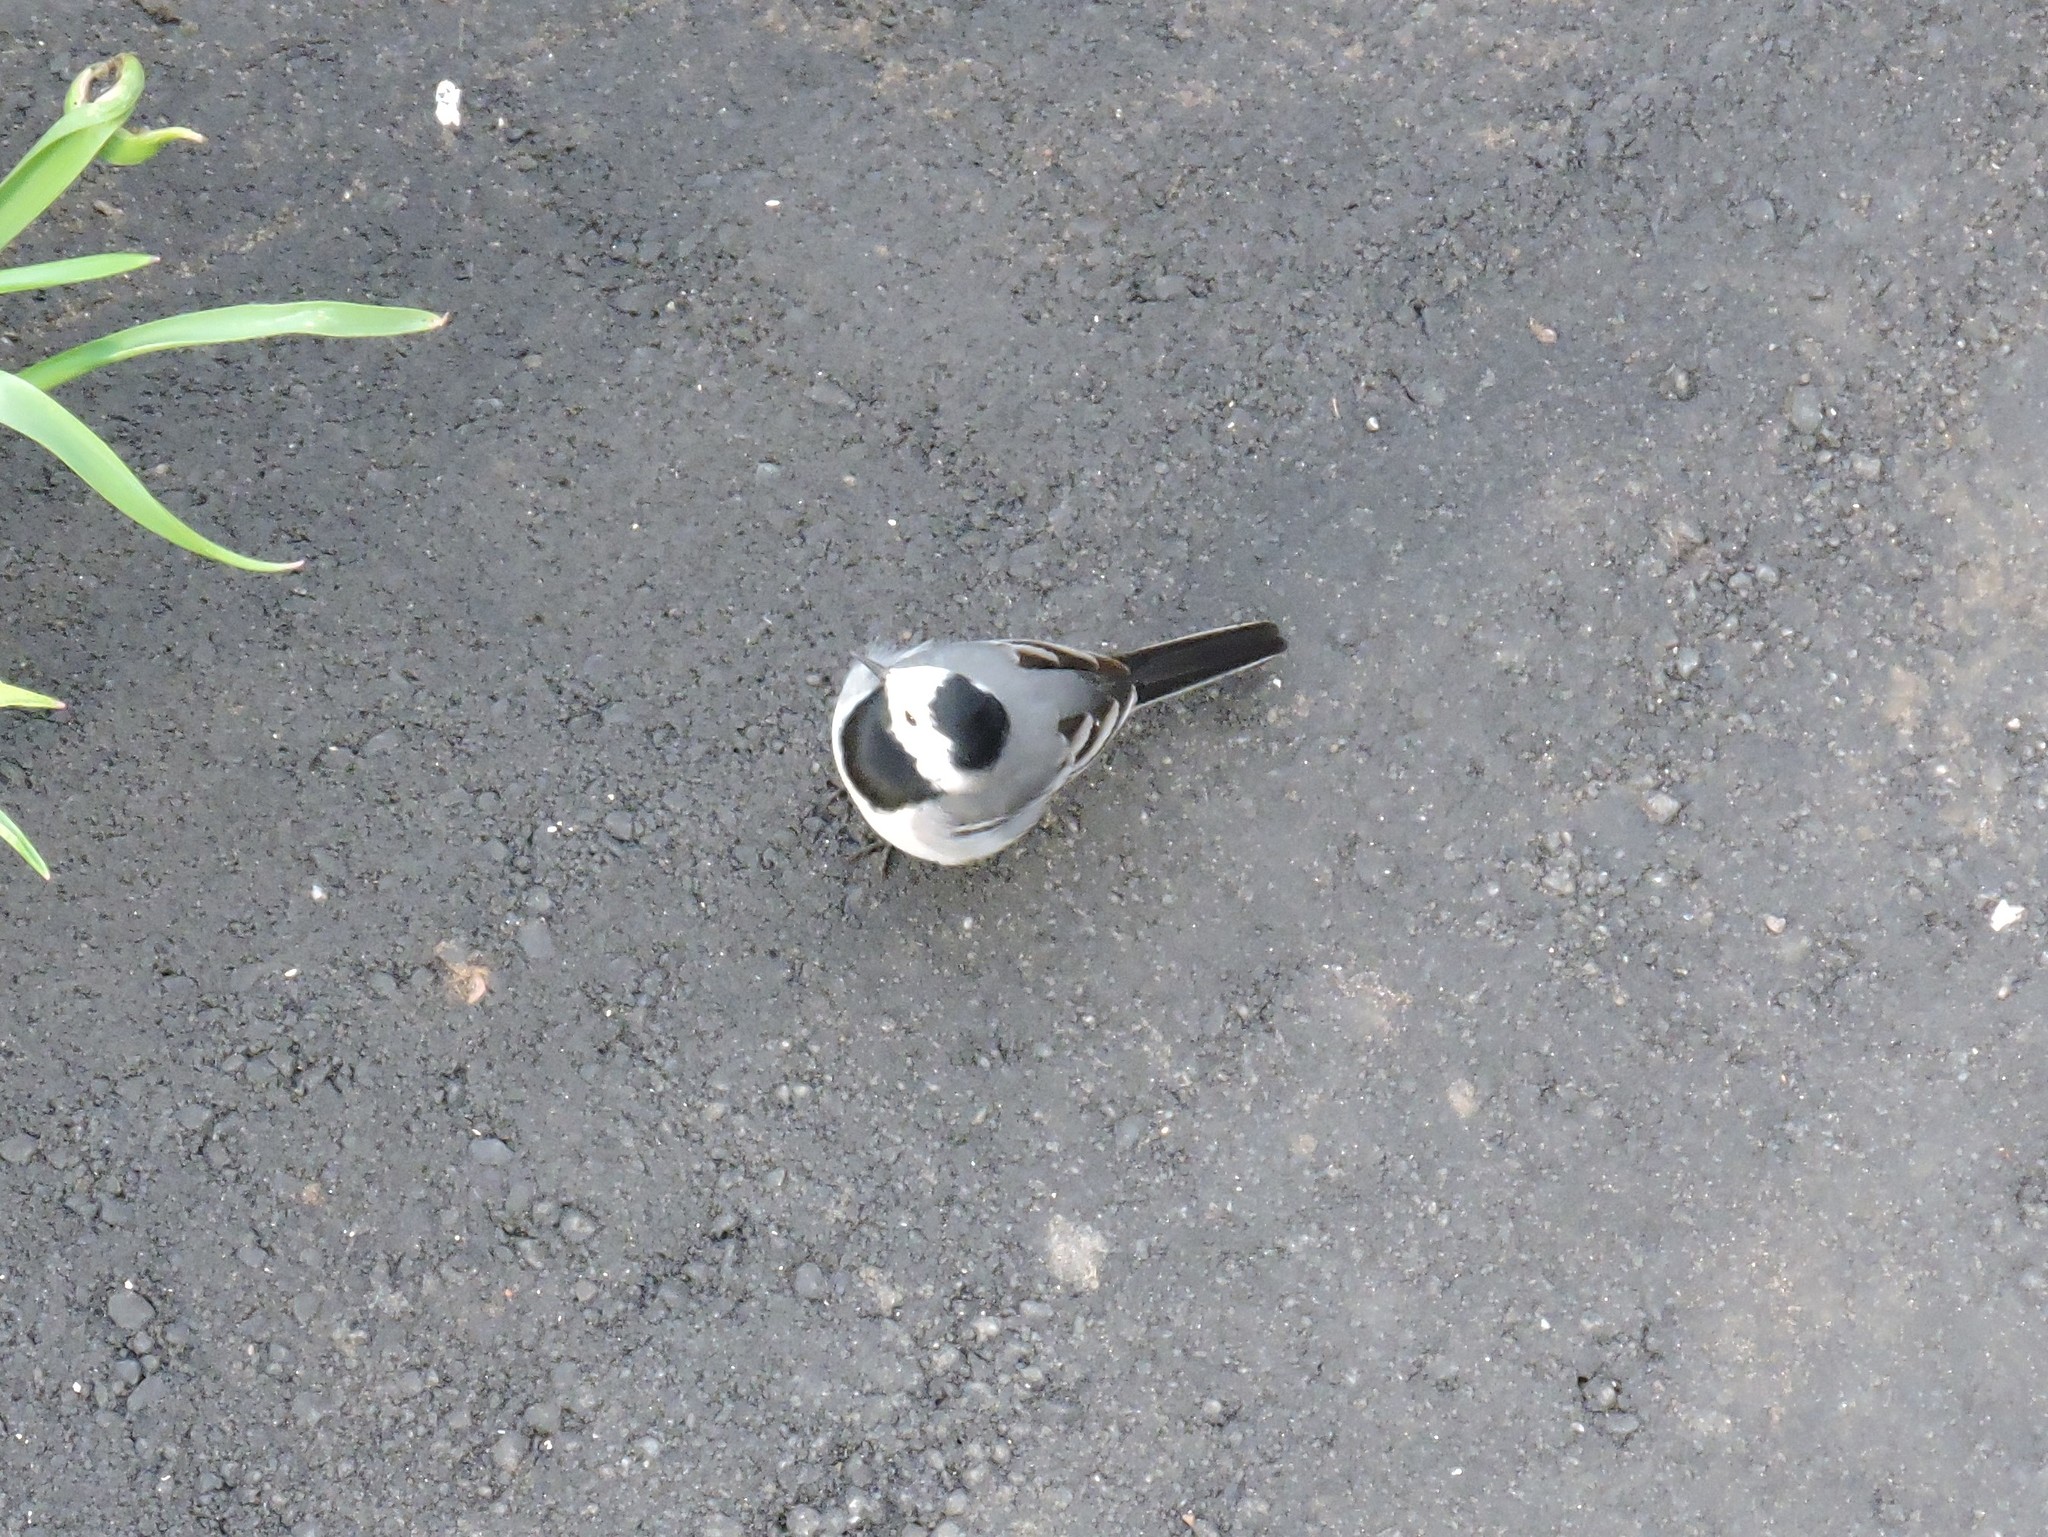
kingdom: Animalia
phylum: Chordata
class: Aves
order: Passeriformes
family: Motacillidae
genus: Motacilla
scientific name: Motacilla alba
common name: White wagtail
